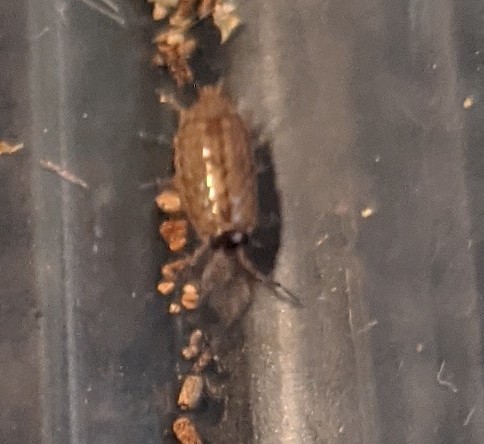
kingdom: Animalia
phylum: Arthropoda
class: Malacostraca
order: Isopoda
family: Philosciidae
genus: Philoscia
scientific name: Philoscia muscorum
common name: Common striped woodlouse
